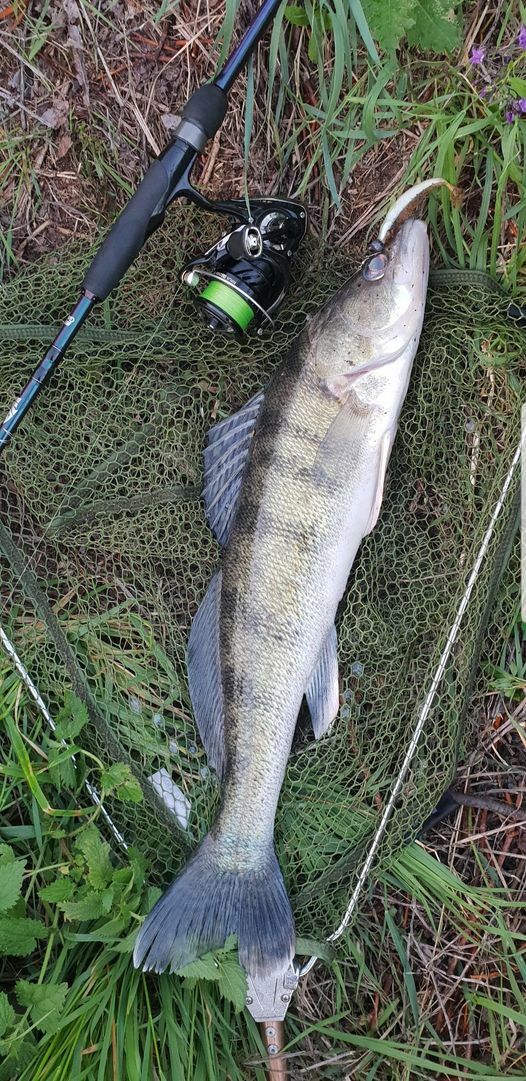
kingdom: Animalia
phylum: Chordata
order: Perciformes
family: Percidae
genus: Sander
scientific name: Sander volgensis
